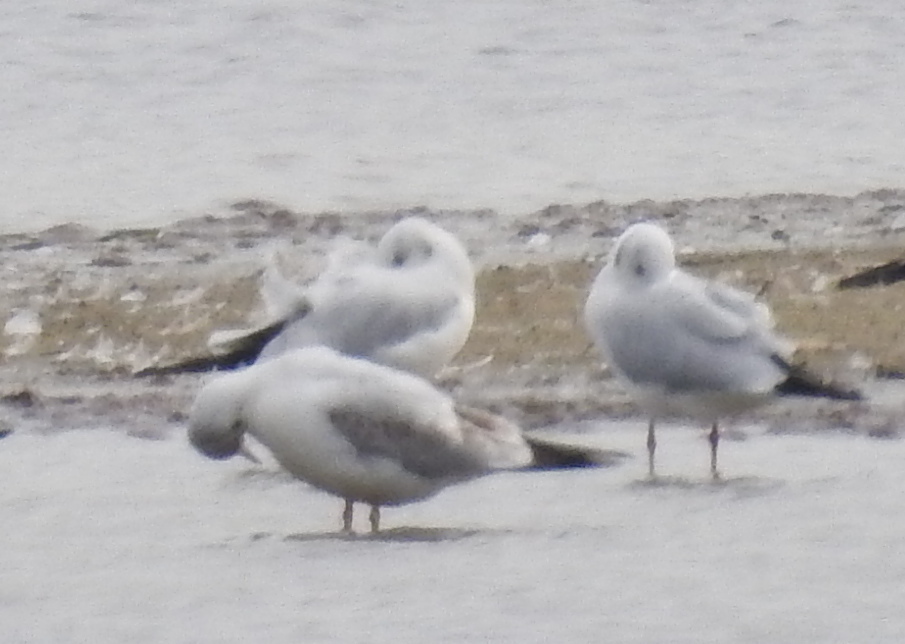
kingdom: Animalia
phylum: Chordata
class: Aves
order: Charadriiformes
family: Laridae
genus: Chroicocephalus
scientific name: Chroicocephalus ridibundus
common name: Black-headed gull
